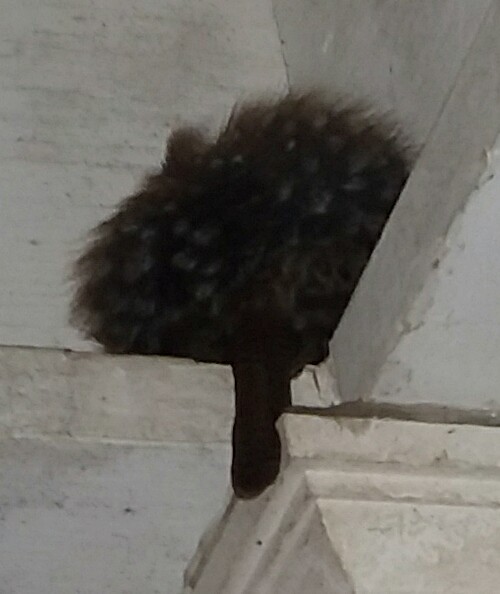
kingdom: Animalia
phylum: Chordata
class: Aves
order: Passeriformes
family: Troglodytidae
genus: Thryothorus
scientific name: Thryothorus ludovicianus
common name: Carolina wren
